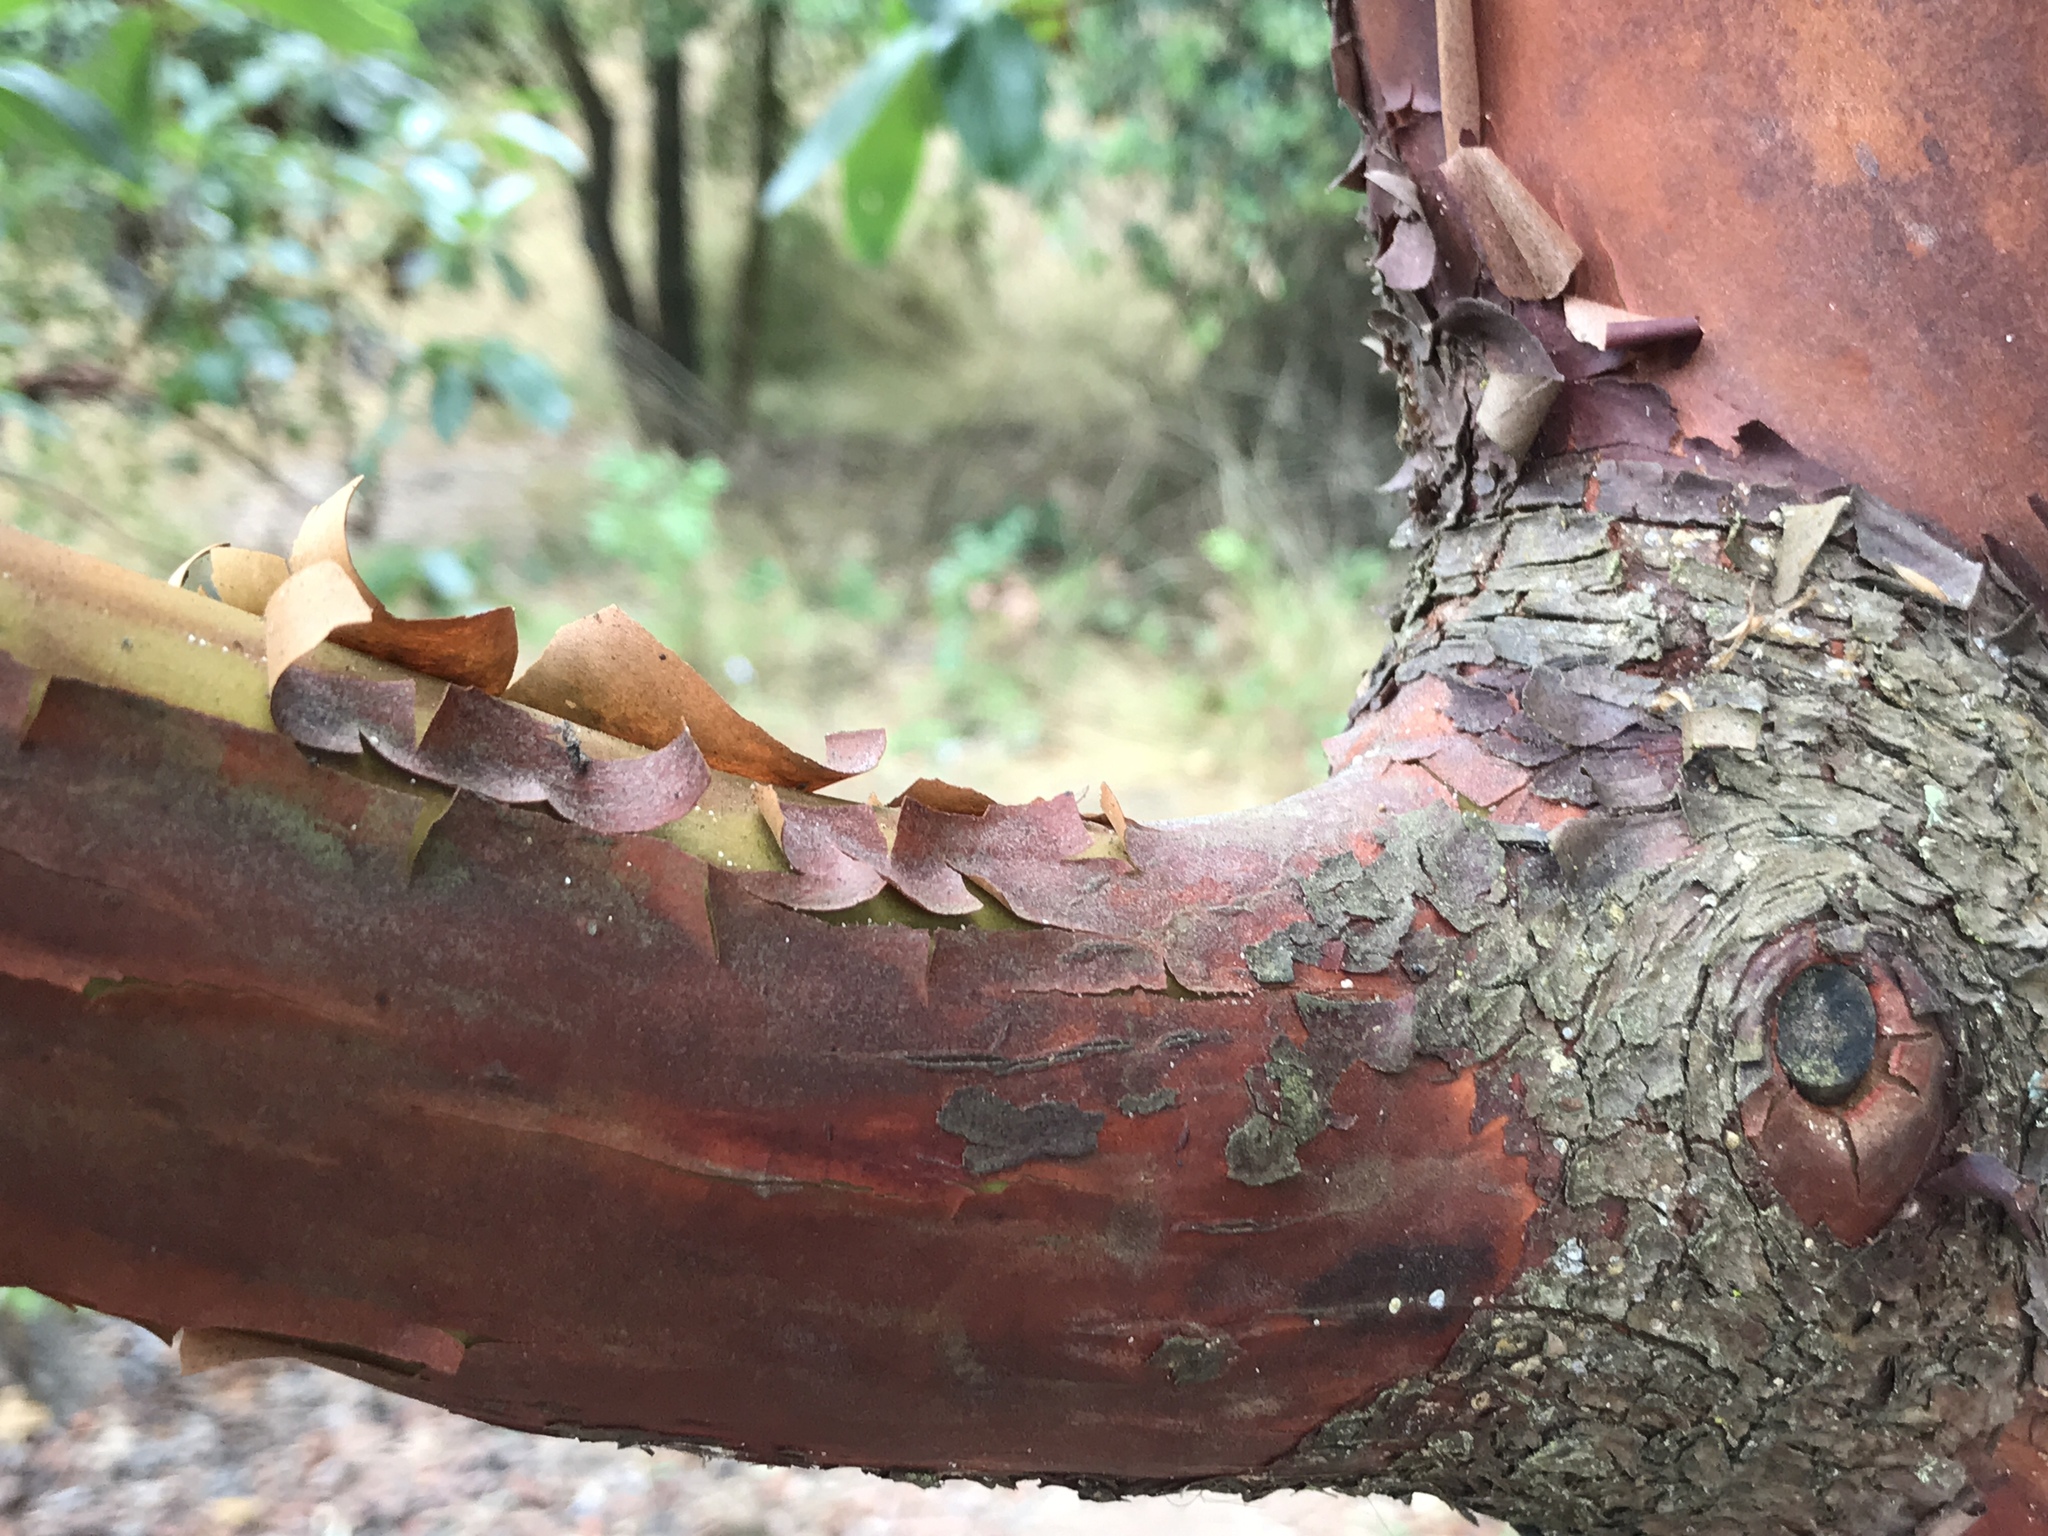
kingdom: Plantae
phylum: Tracheophyta
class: Magnoliopsida
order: Ericales
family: Ericaceae
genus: Arbutus
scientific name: Arbutus menziesii
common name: Pacific madrone
